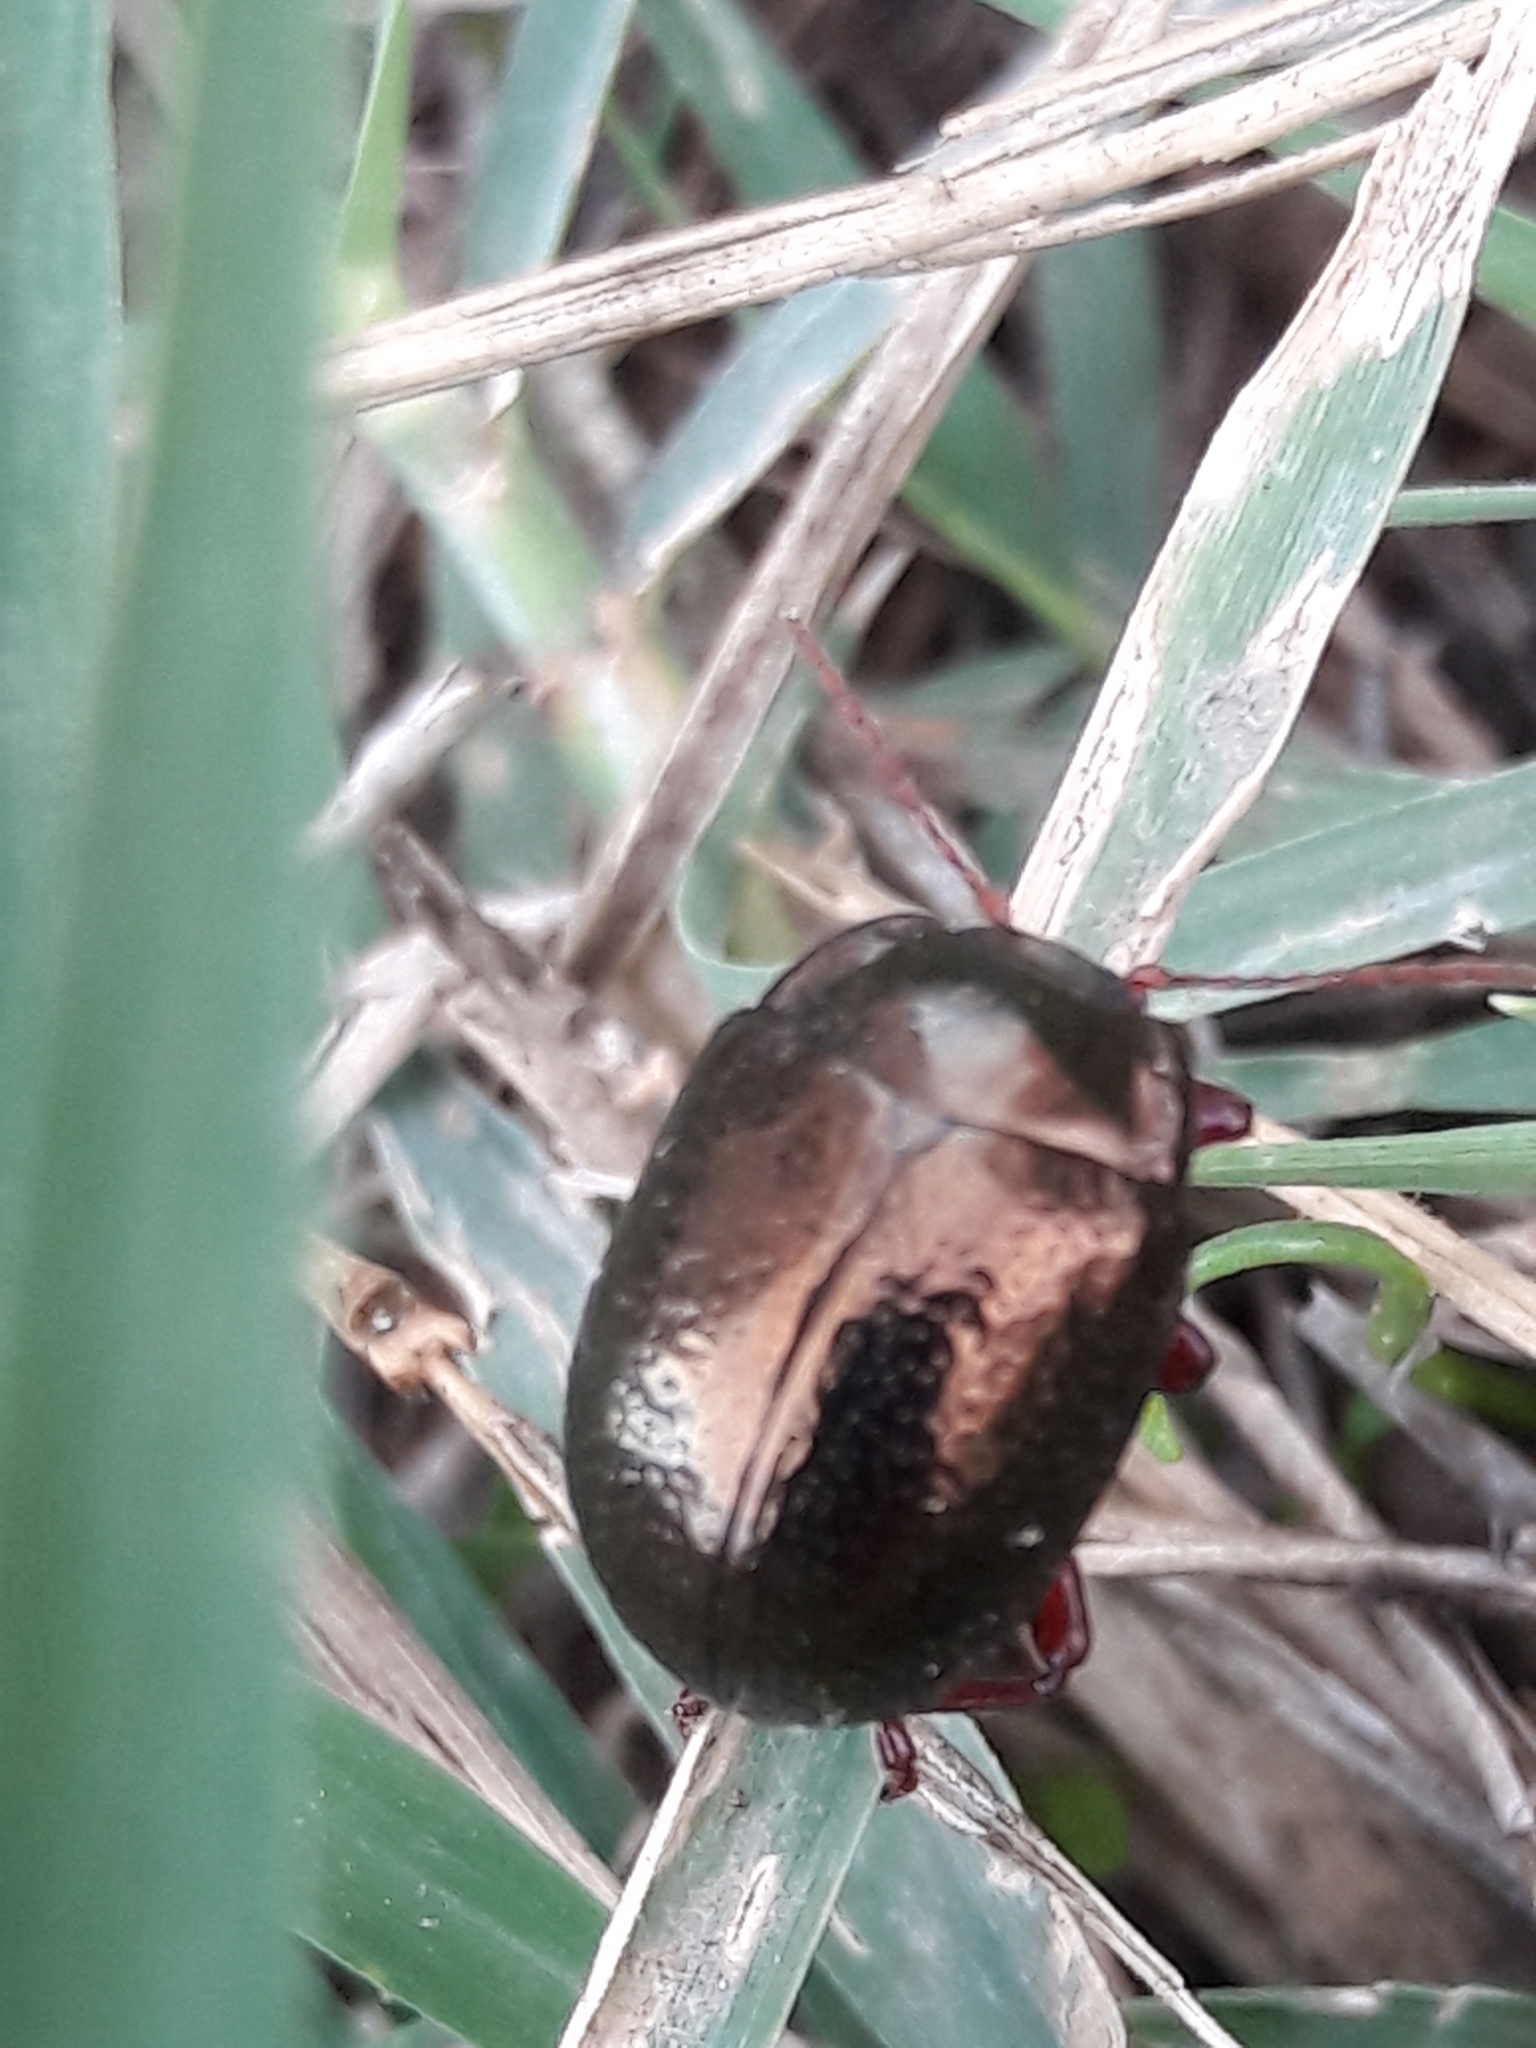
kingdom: Animalia
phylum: Arthropoda
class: Insecta
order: Coleoptera
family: Chrysomelidae
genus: Chrysolina
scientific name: Chrysolina bankii
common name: Leaf beetle
